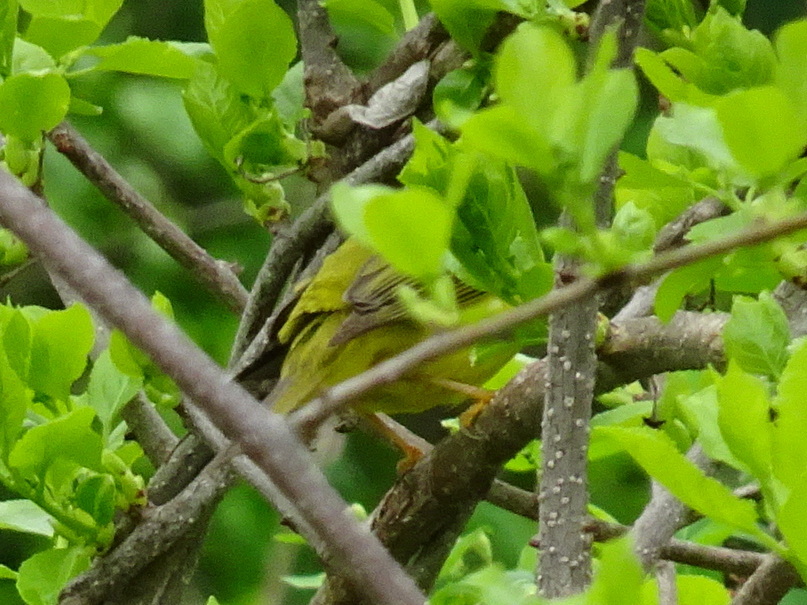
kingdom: Animalia
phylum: Chordata
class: Aves
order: Passeriformes
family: Parulidae
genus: Cardellina
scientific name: Cardellina pusilla
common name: Wilson's warbler
